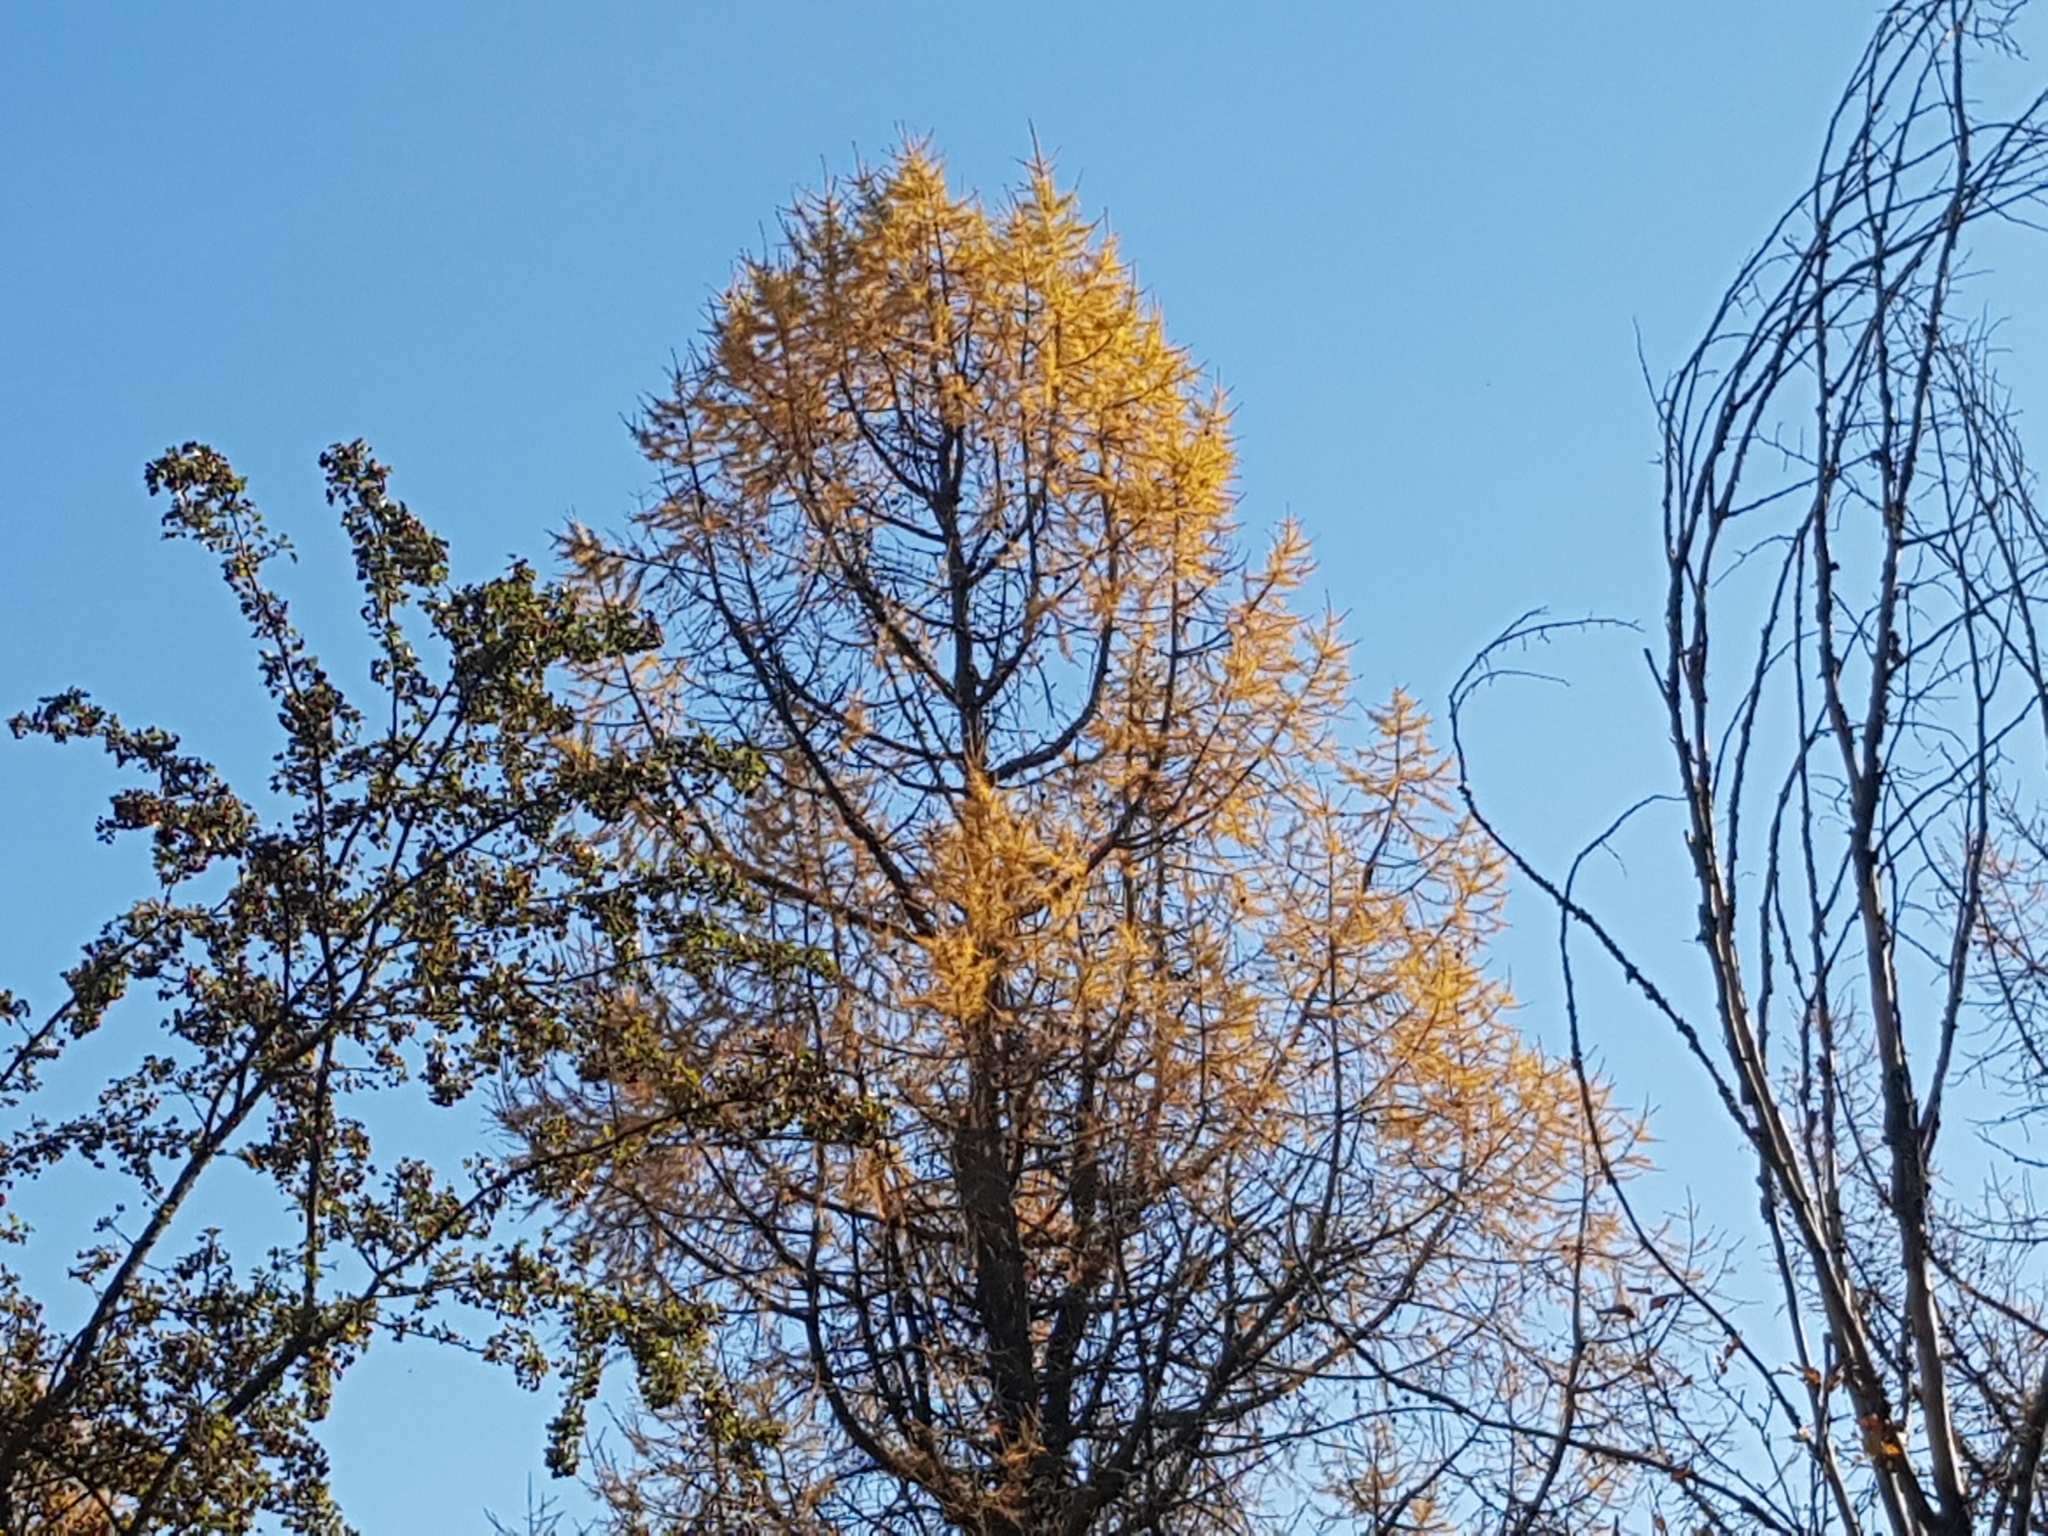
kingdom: Plantae
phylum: Tracheophyta
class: Pinopsida
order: Pinales
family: Pinaceae
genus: Larix
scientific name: Larix
